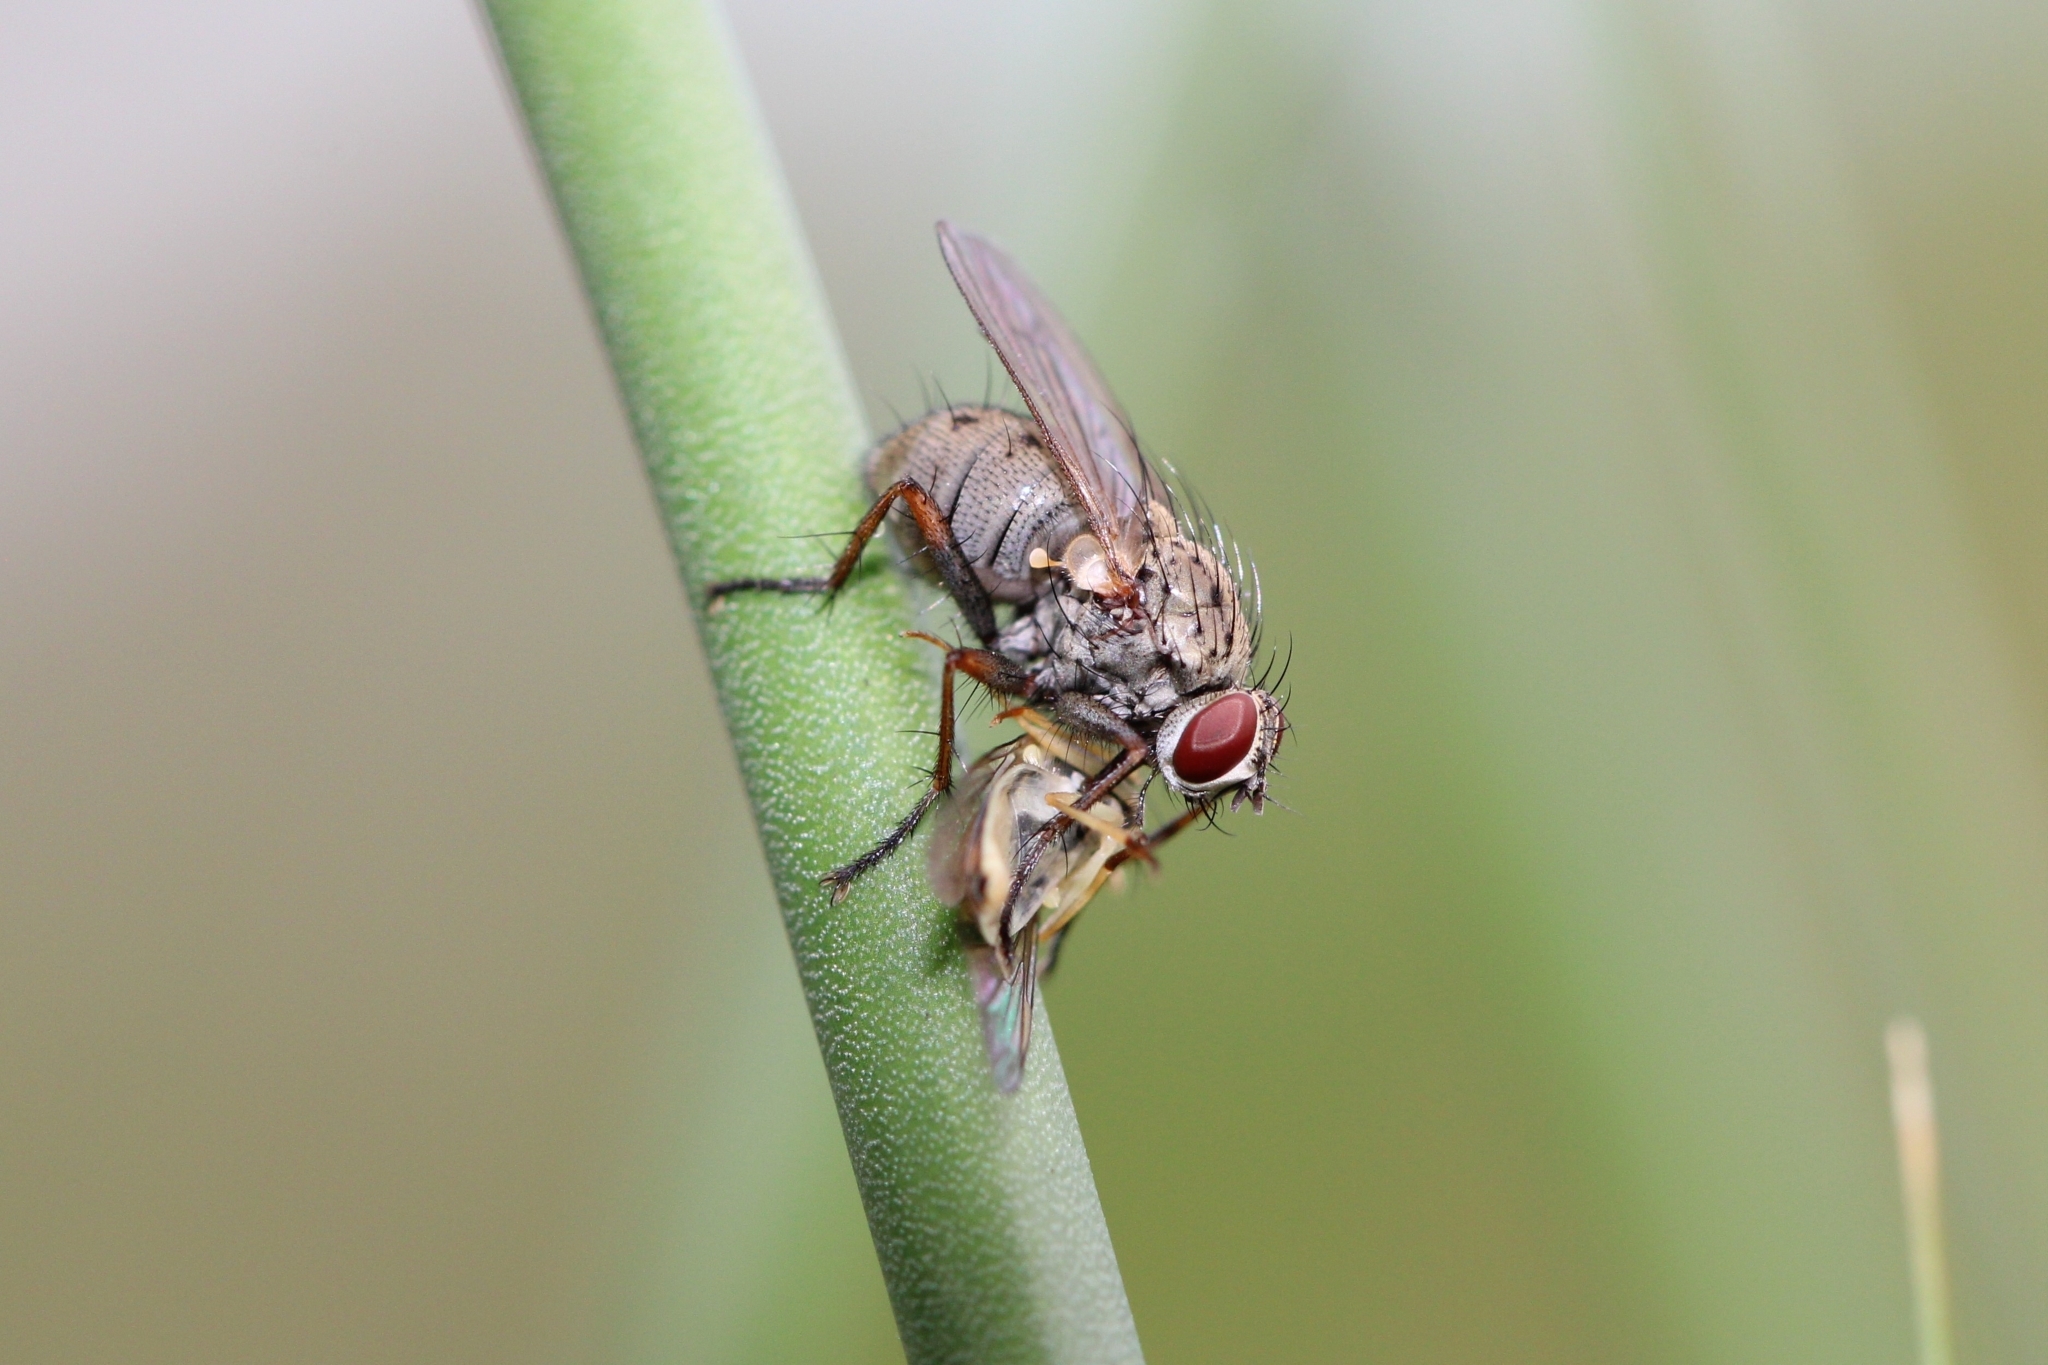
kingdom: Animalia
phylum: Arthropoda
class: Insecta
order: Diptera
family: Muscidae
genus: Coenosia
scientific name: Coenosia tigrina
